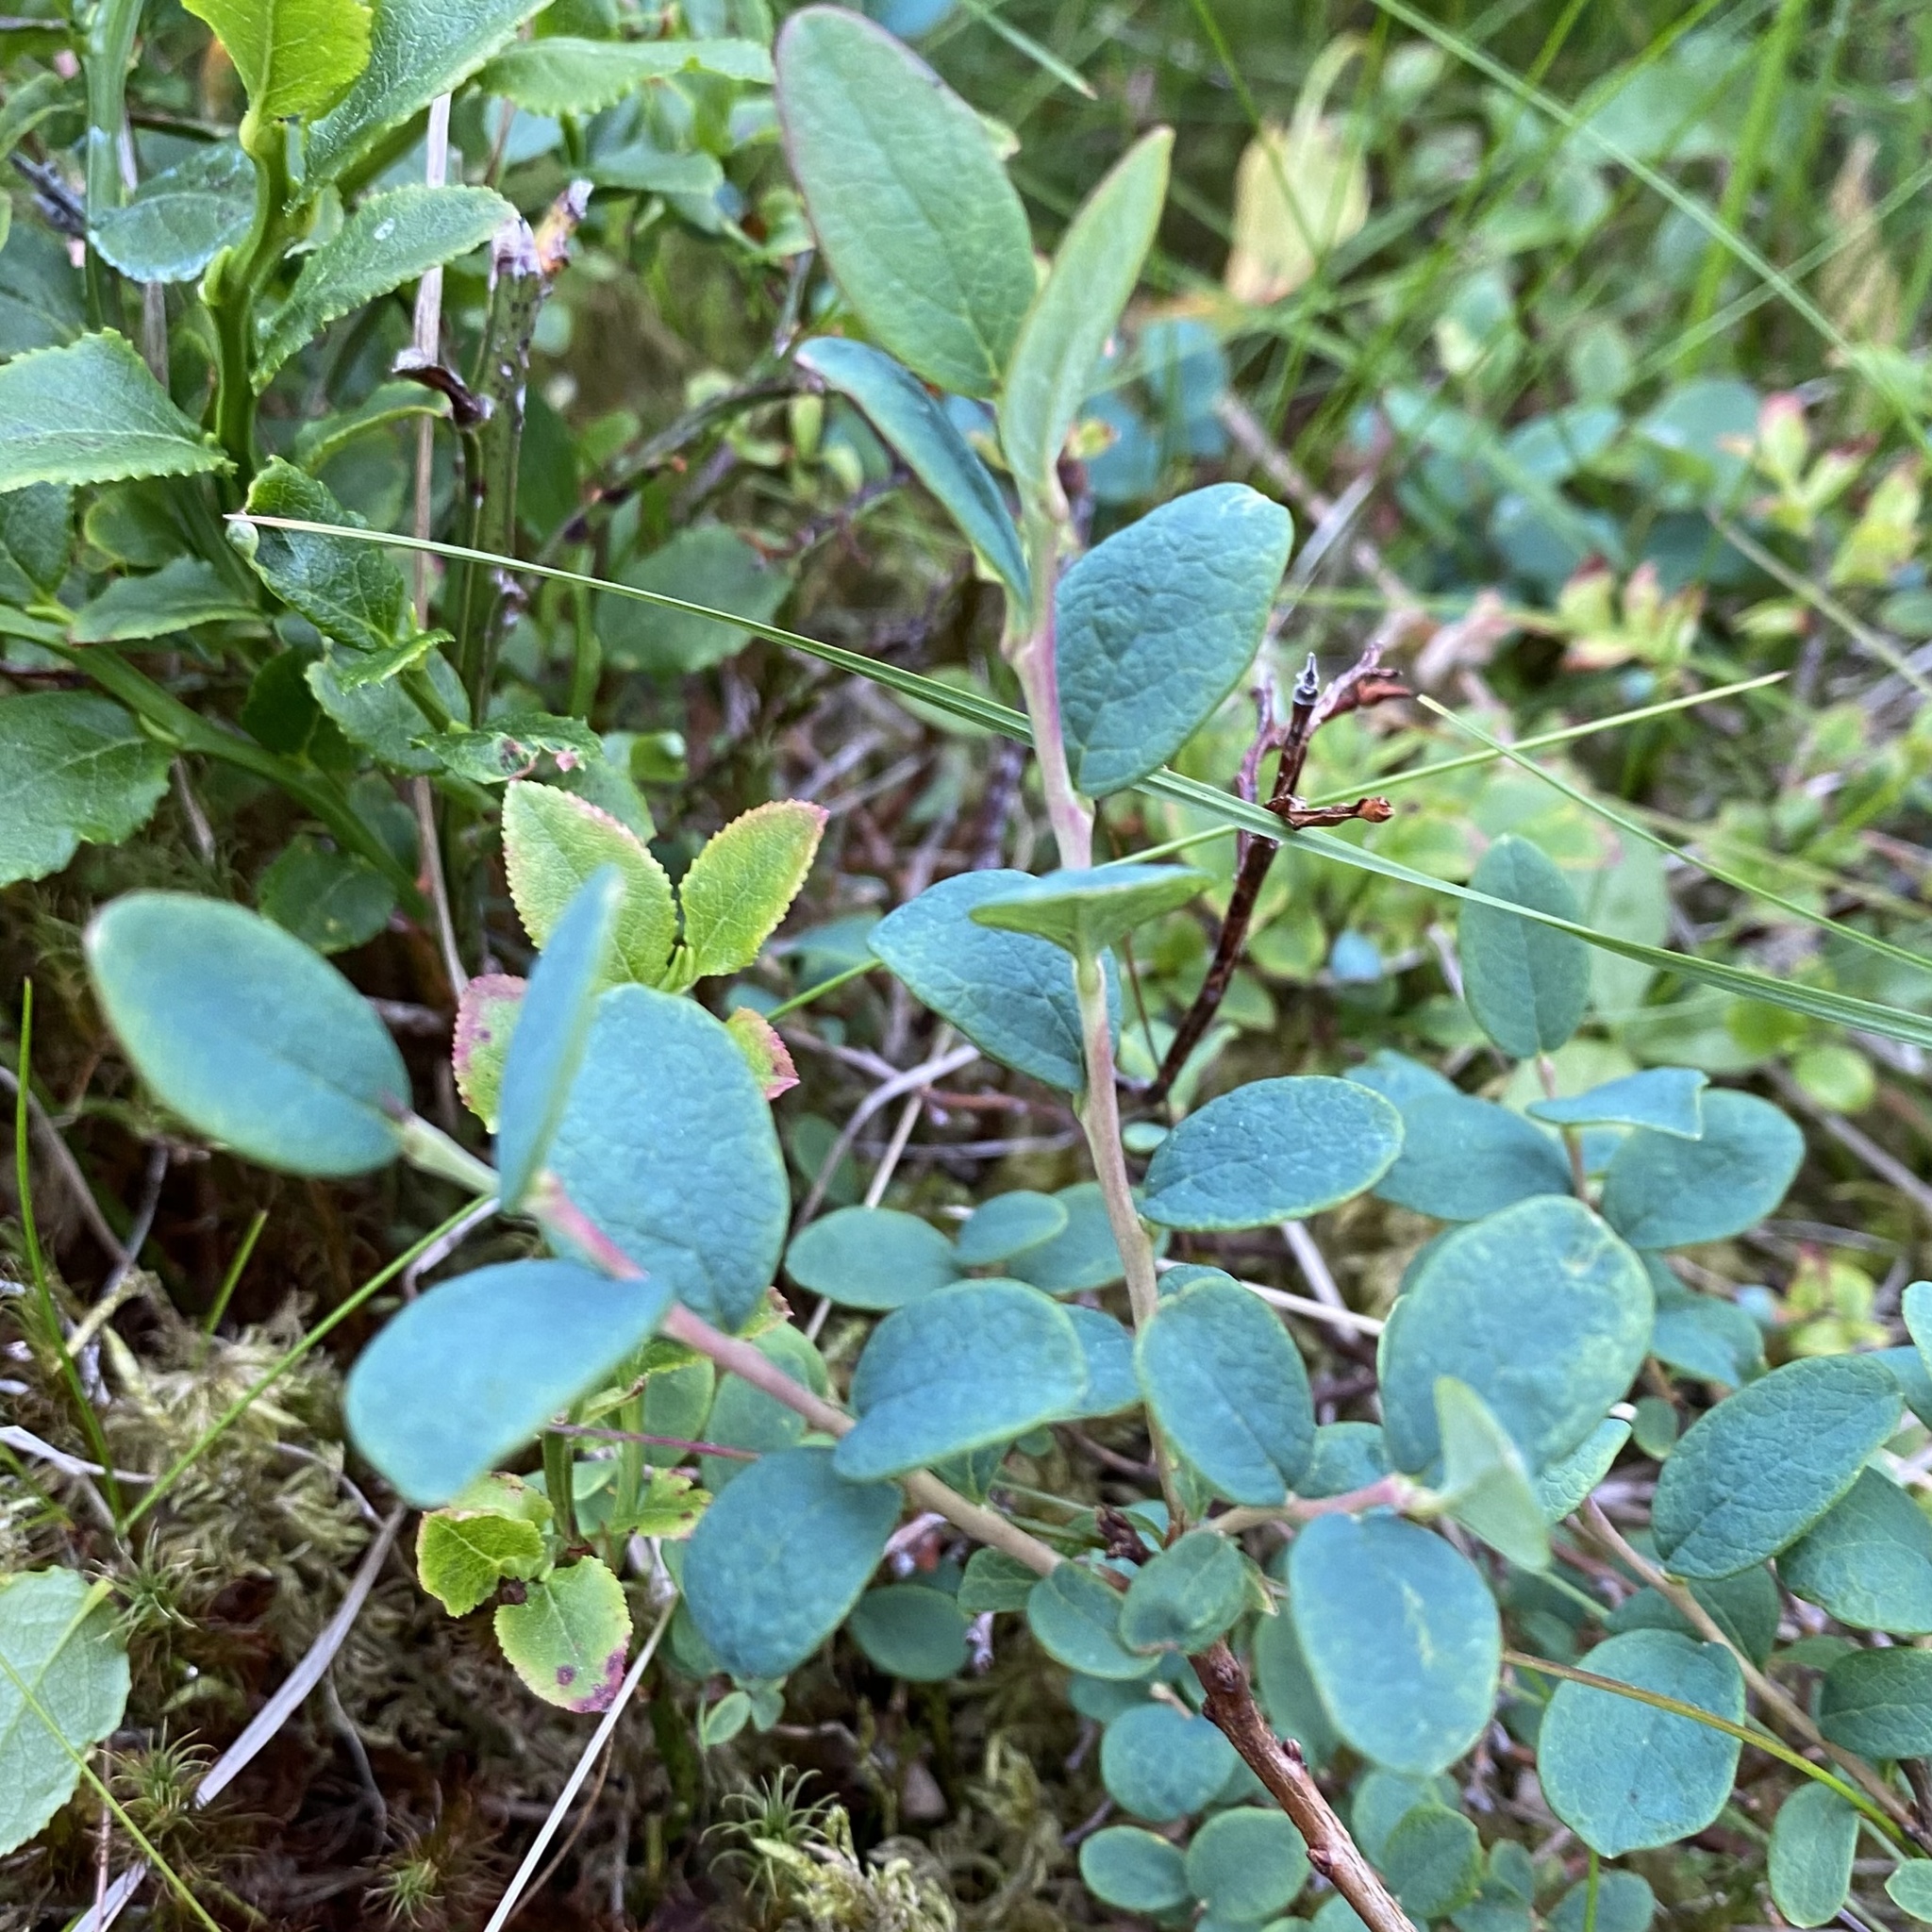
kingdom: Plantae
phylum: Tracheophyta
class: Magnoliopsida
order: Ericales
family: Ericaceae
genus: Vaccinium
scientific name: Vaccinium uliginosum
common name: Bog bilberry
